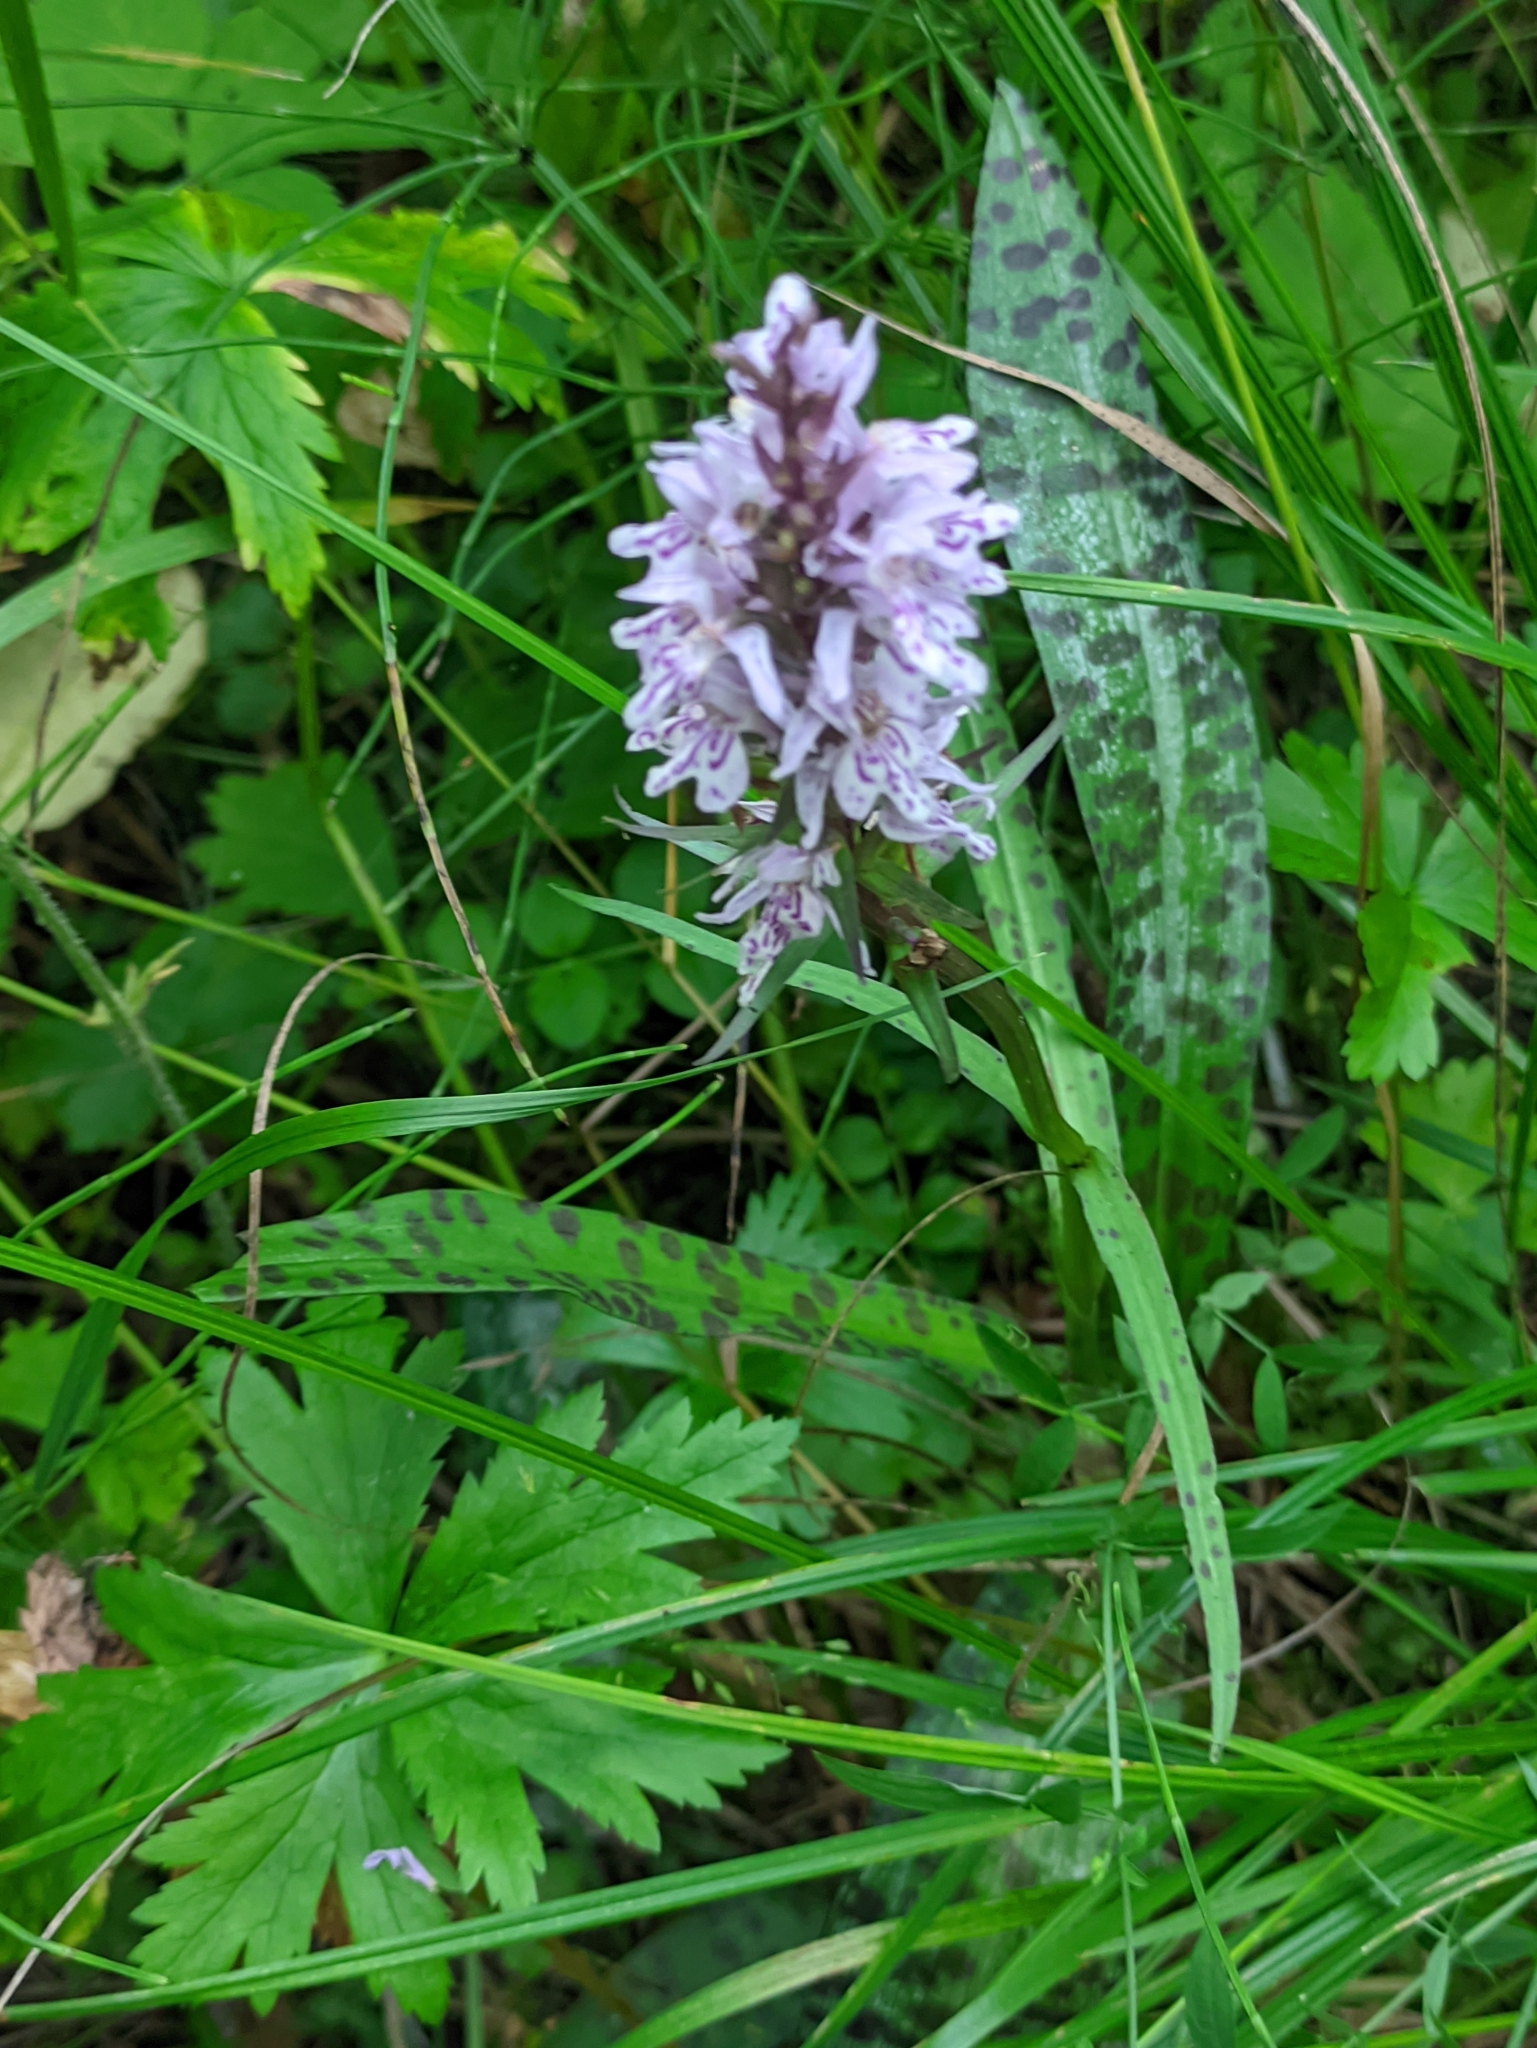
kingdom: Plantae
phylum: Tracheophyta
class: Liliopsida
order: Asparagales
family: Orchidaceae
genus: Dactylorhiza
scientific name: Dactylorhiza maculata
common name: Heath spotted-orchid
